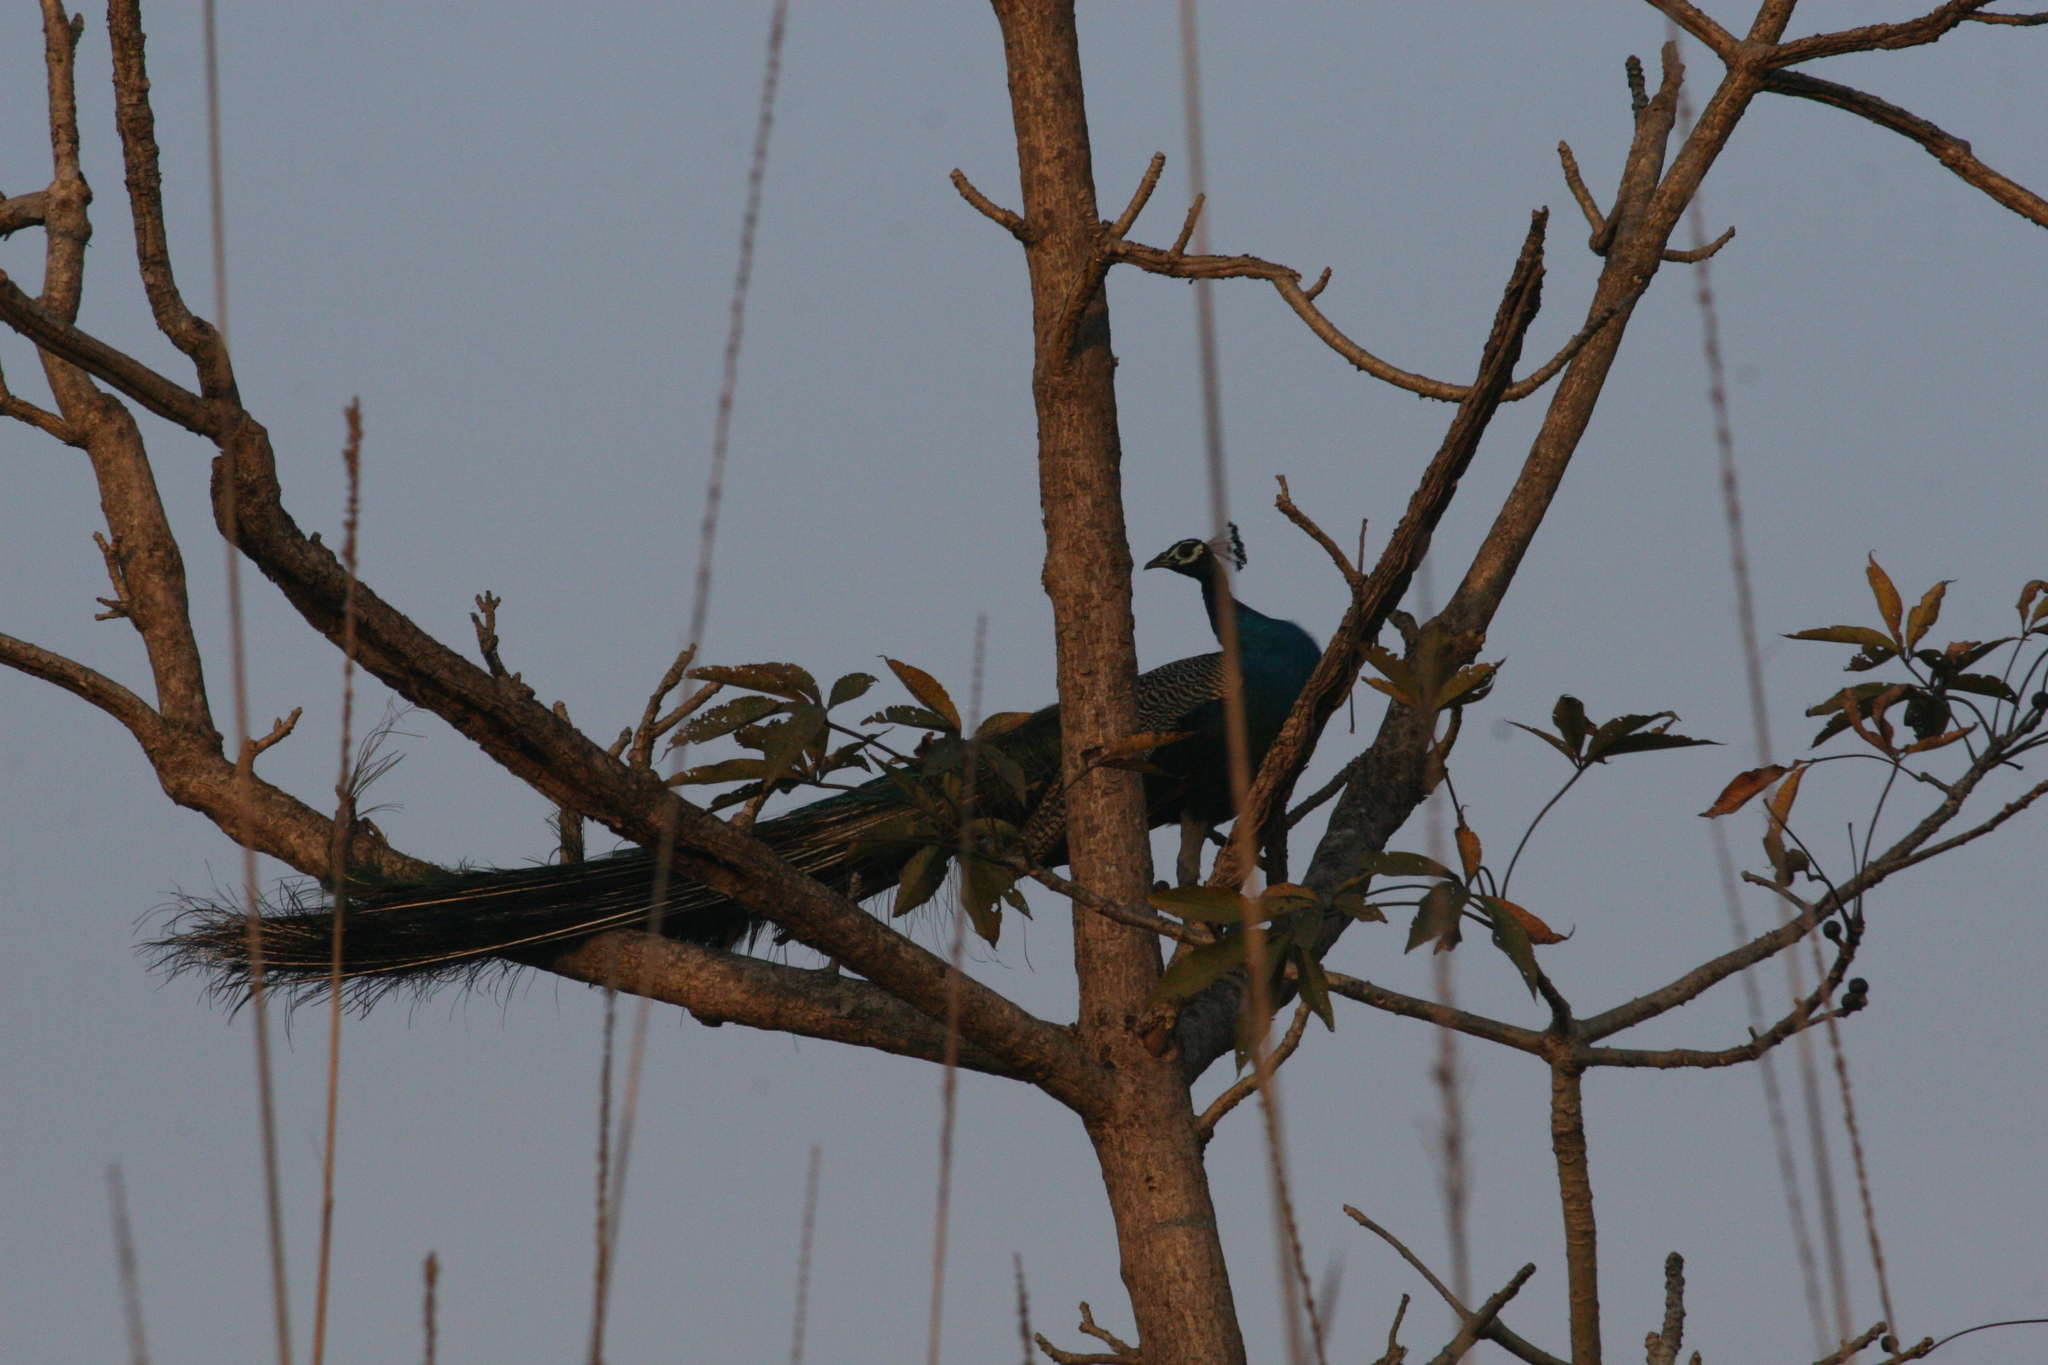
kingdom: Animalia
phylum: Chordata
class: Aves
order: Galliformes
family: Phasianidae
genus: Pavo
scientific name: Pavo cristatus
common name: Indian peafowl
